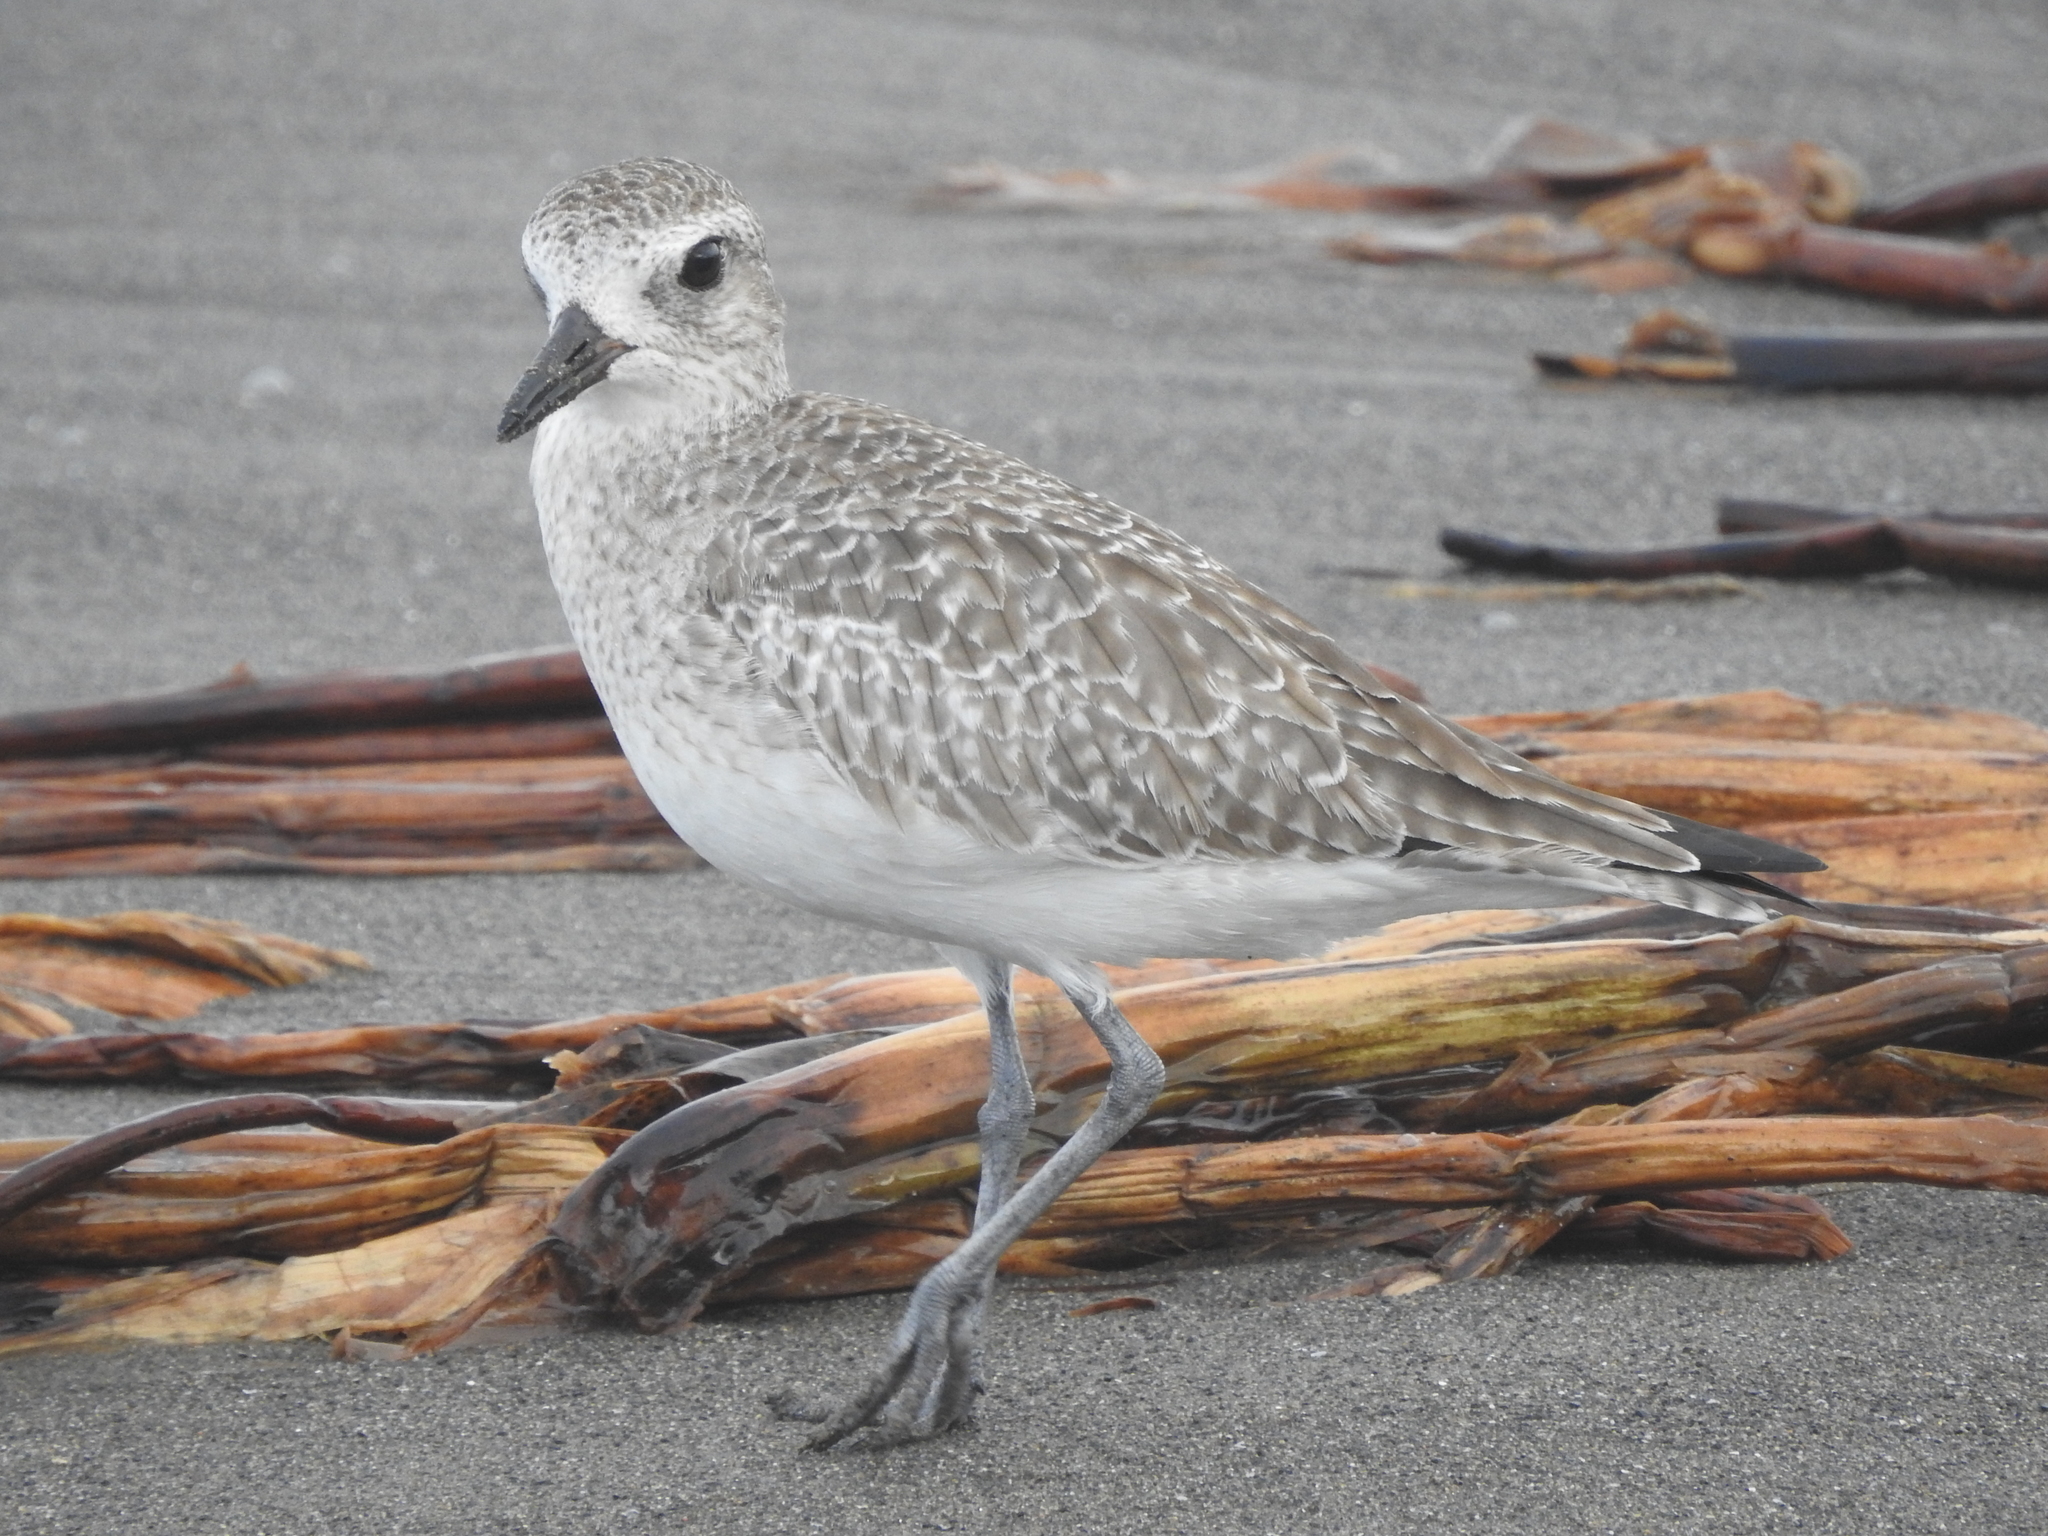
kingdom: Animalia
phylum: Chordata
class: Aves
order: Charadriiformes
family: Charadriidae
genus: Pluvialis
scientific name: Pluvialis squatarola
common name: Grey plover
